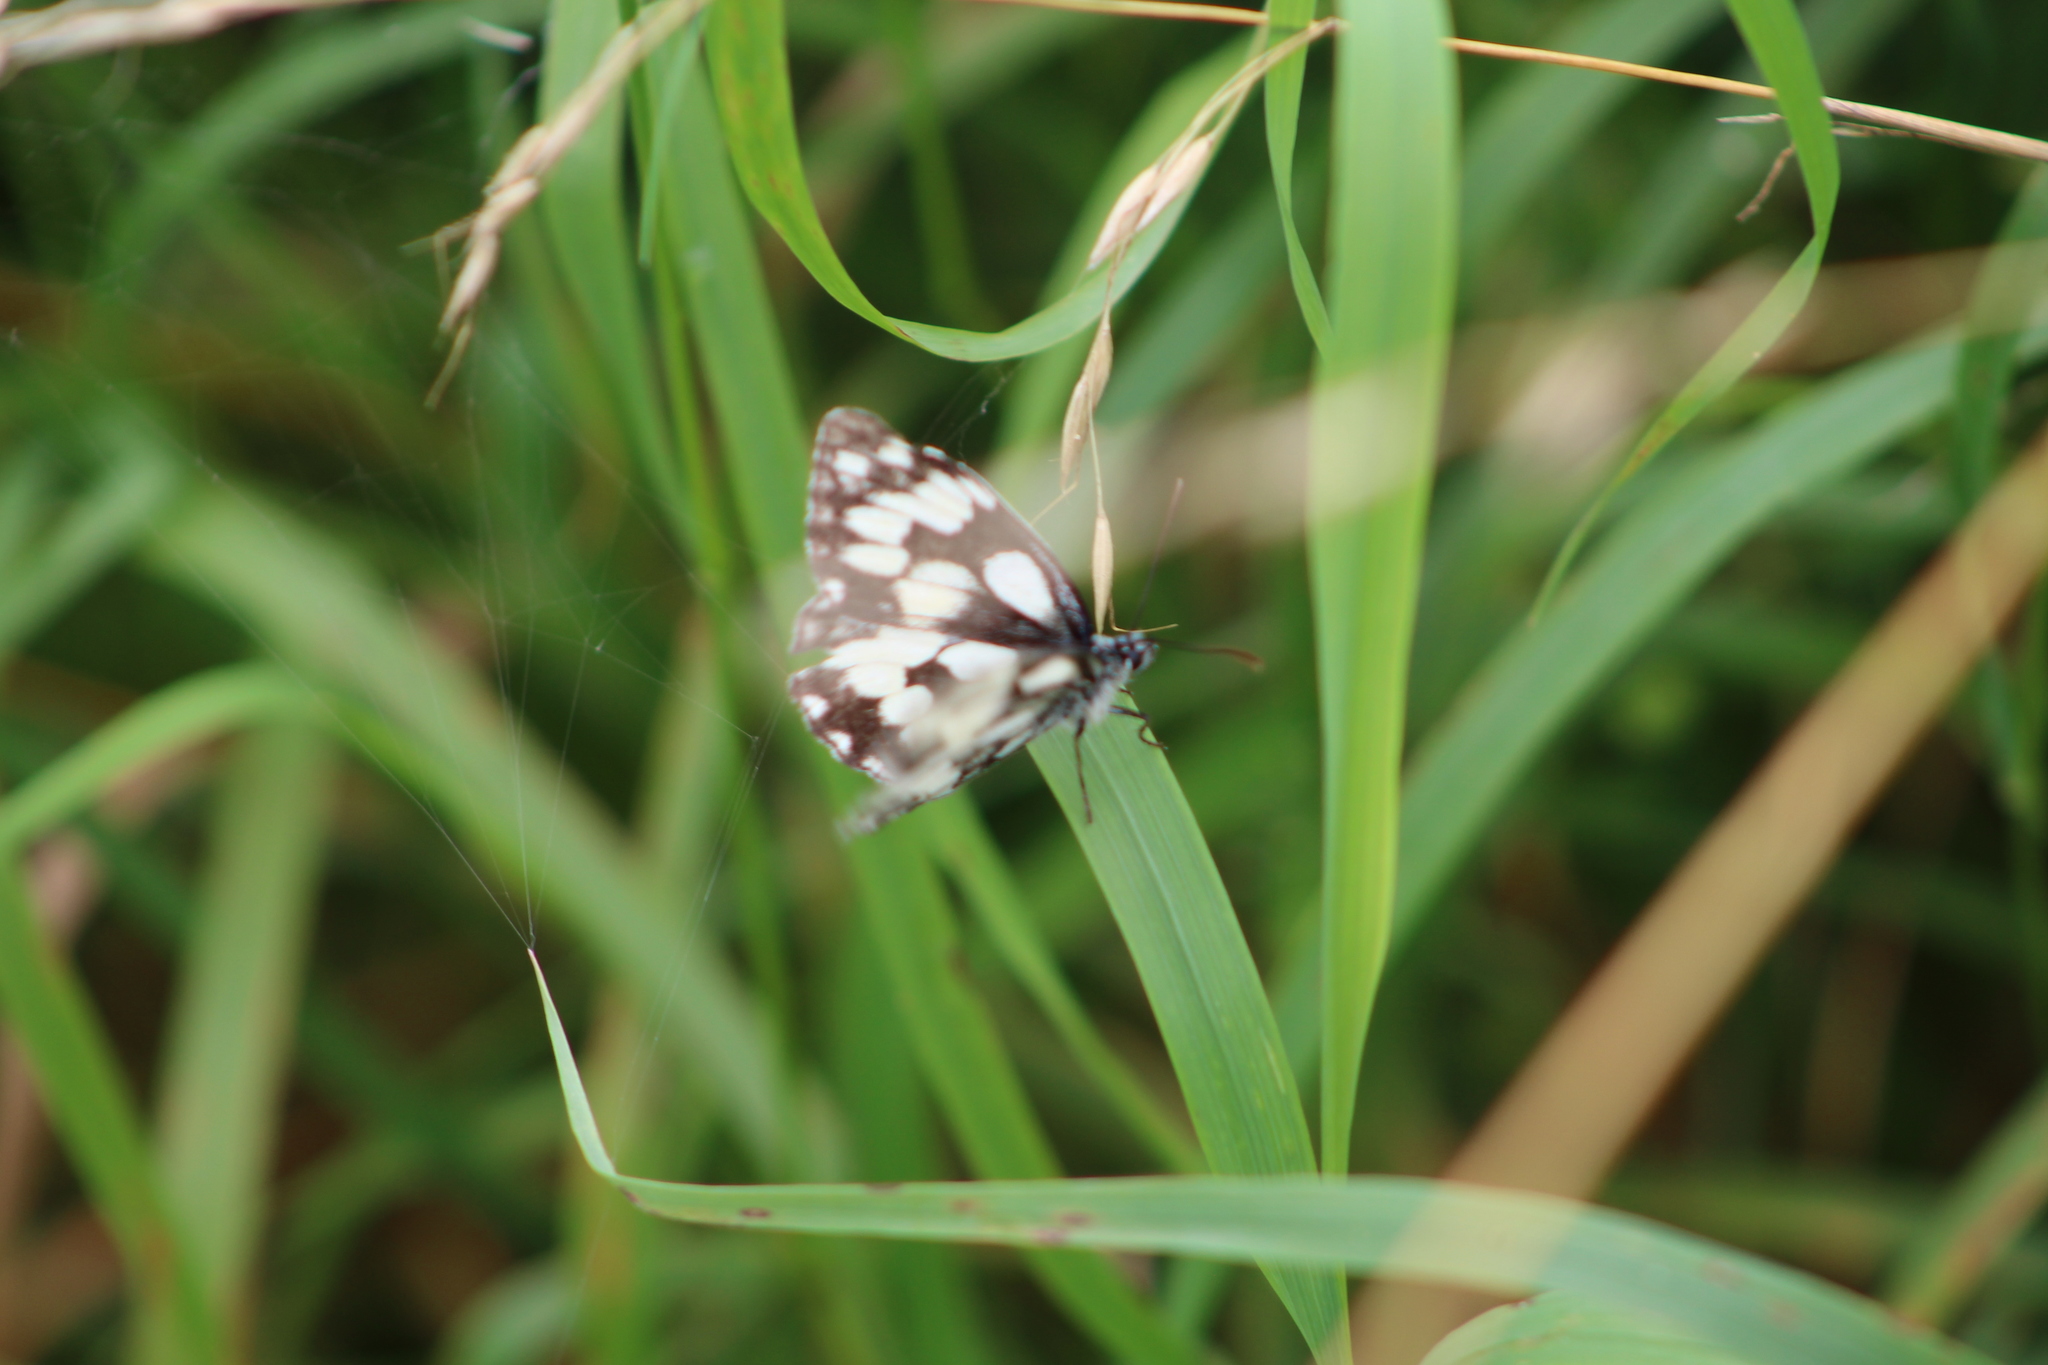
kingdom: Animalia
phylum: Arthropoda
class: Insecta
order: Lepidoptera
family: Nymphalidae
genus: Melanargia
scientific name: Melanargia galathea
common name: Marbled white
